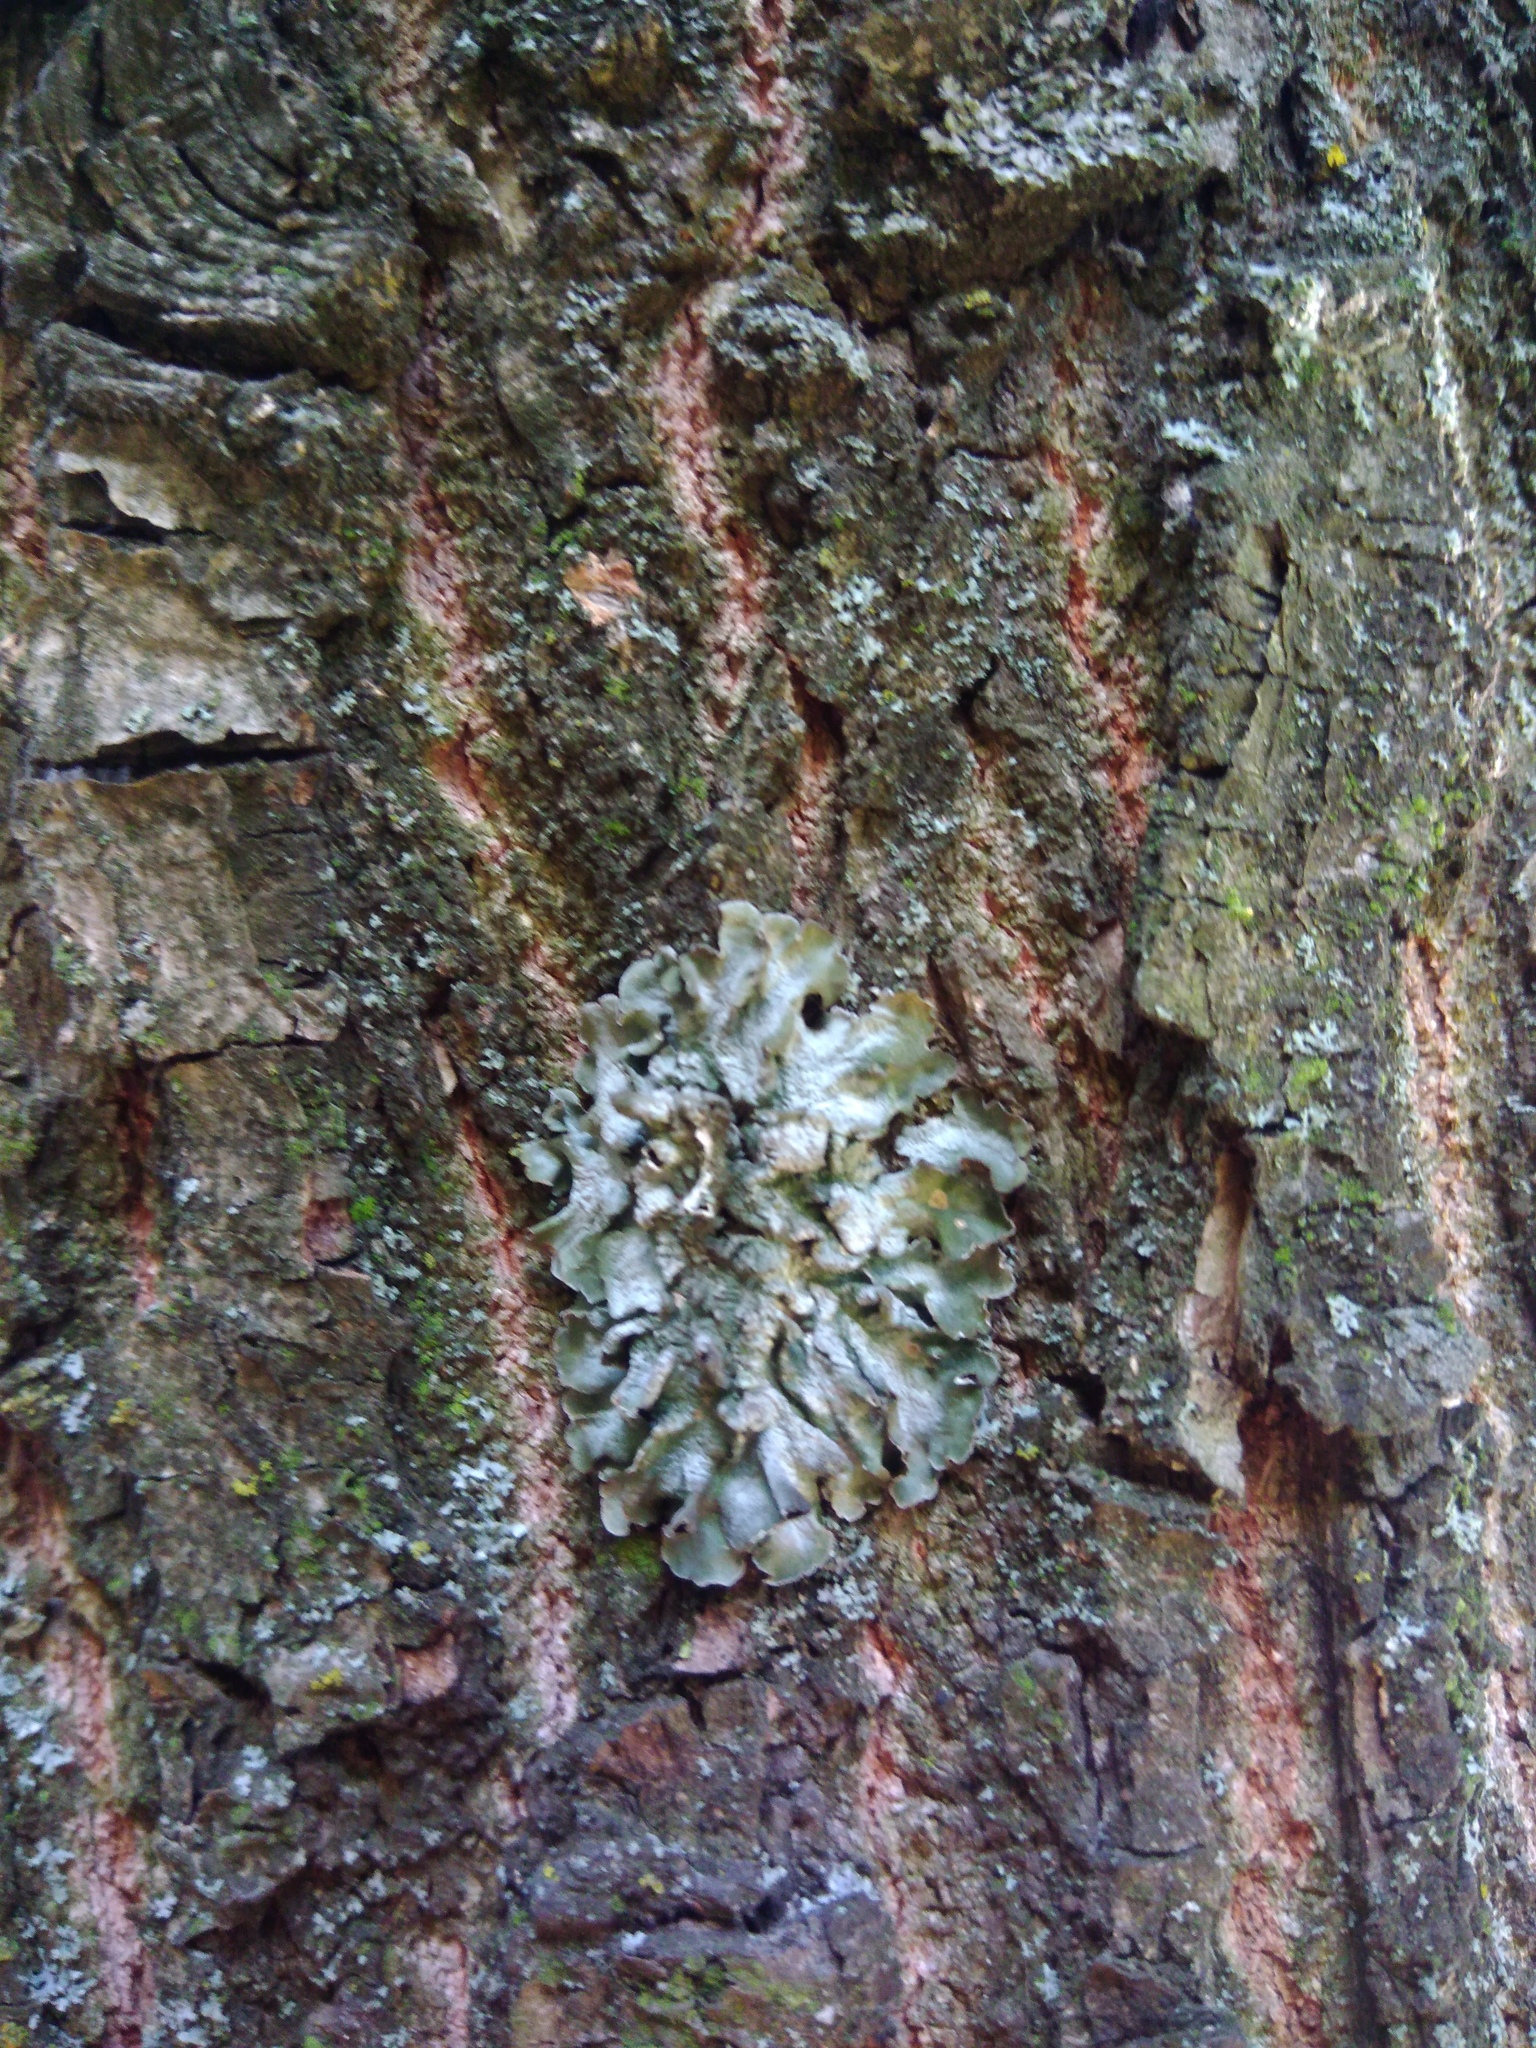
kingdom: Fungi
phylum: Ascomycota
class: Lecanoromycetes
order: Lecanorales
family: Parmeliaceae
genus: Pleurosticta
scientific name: Pleurosticta acetabulum
